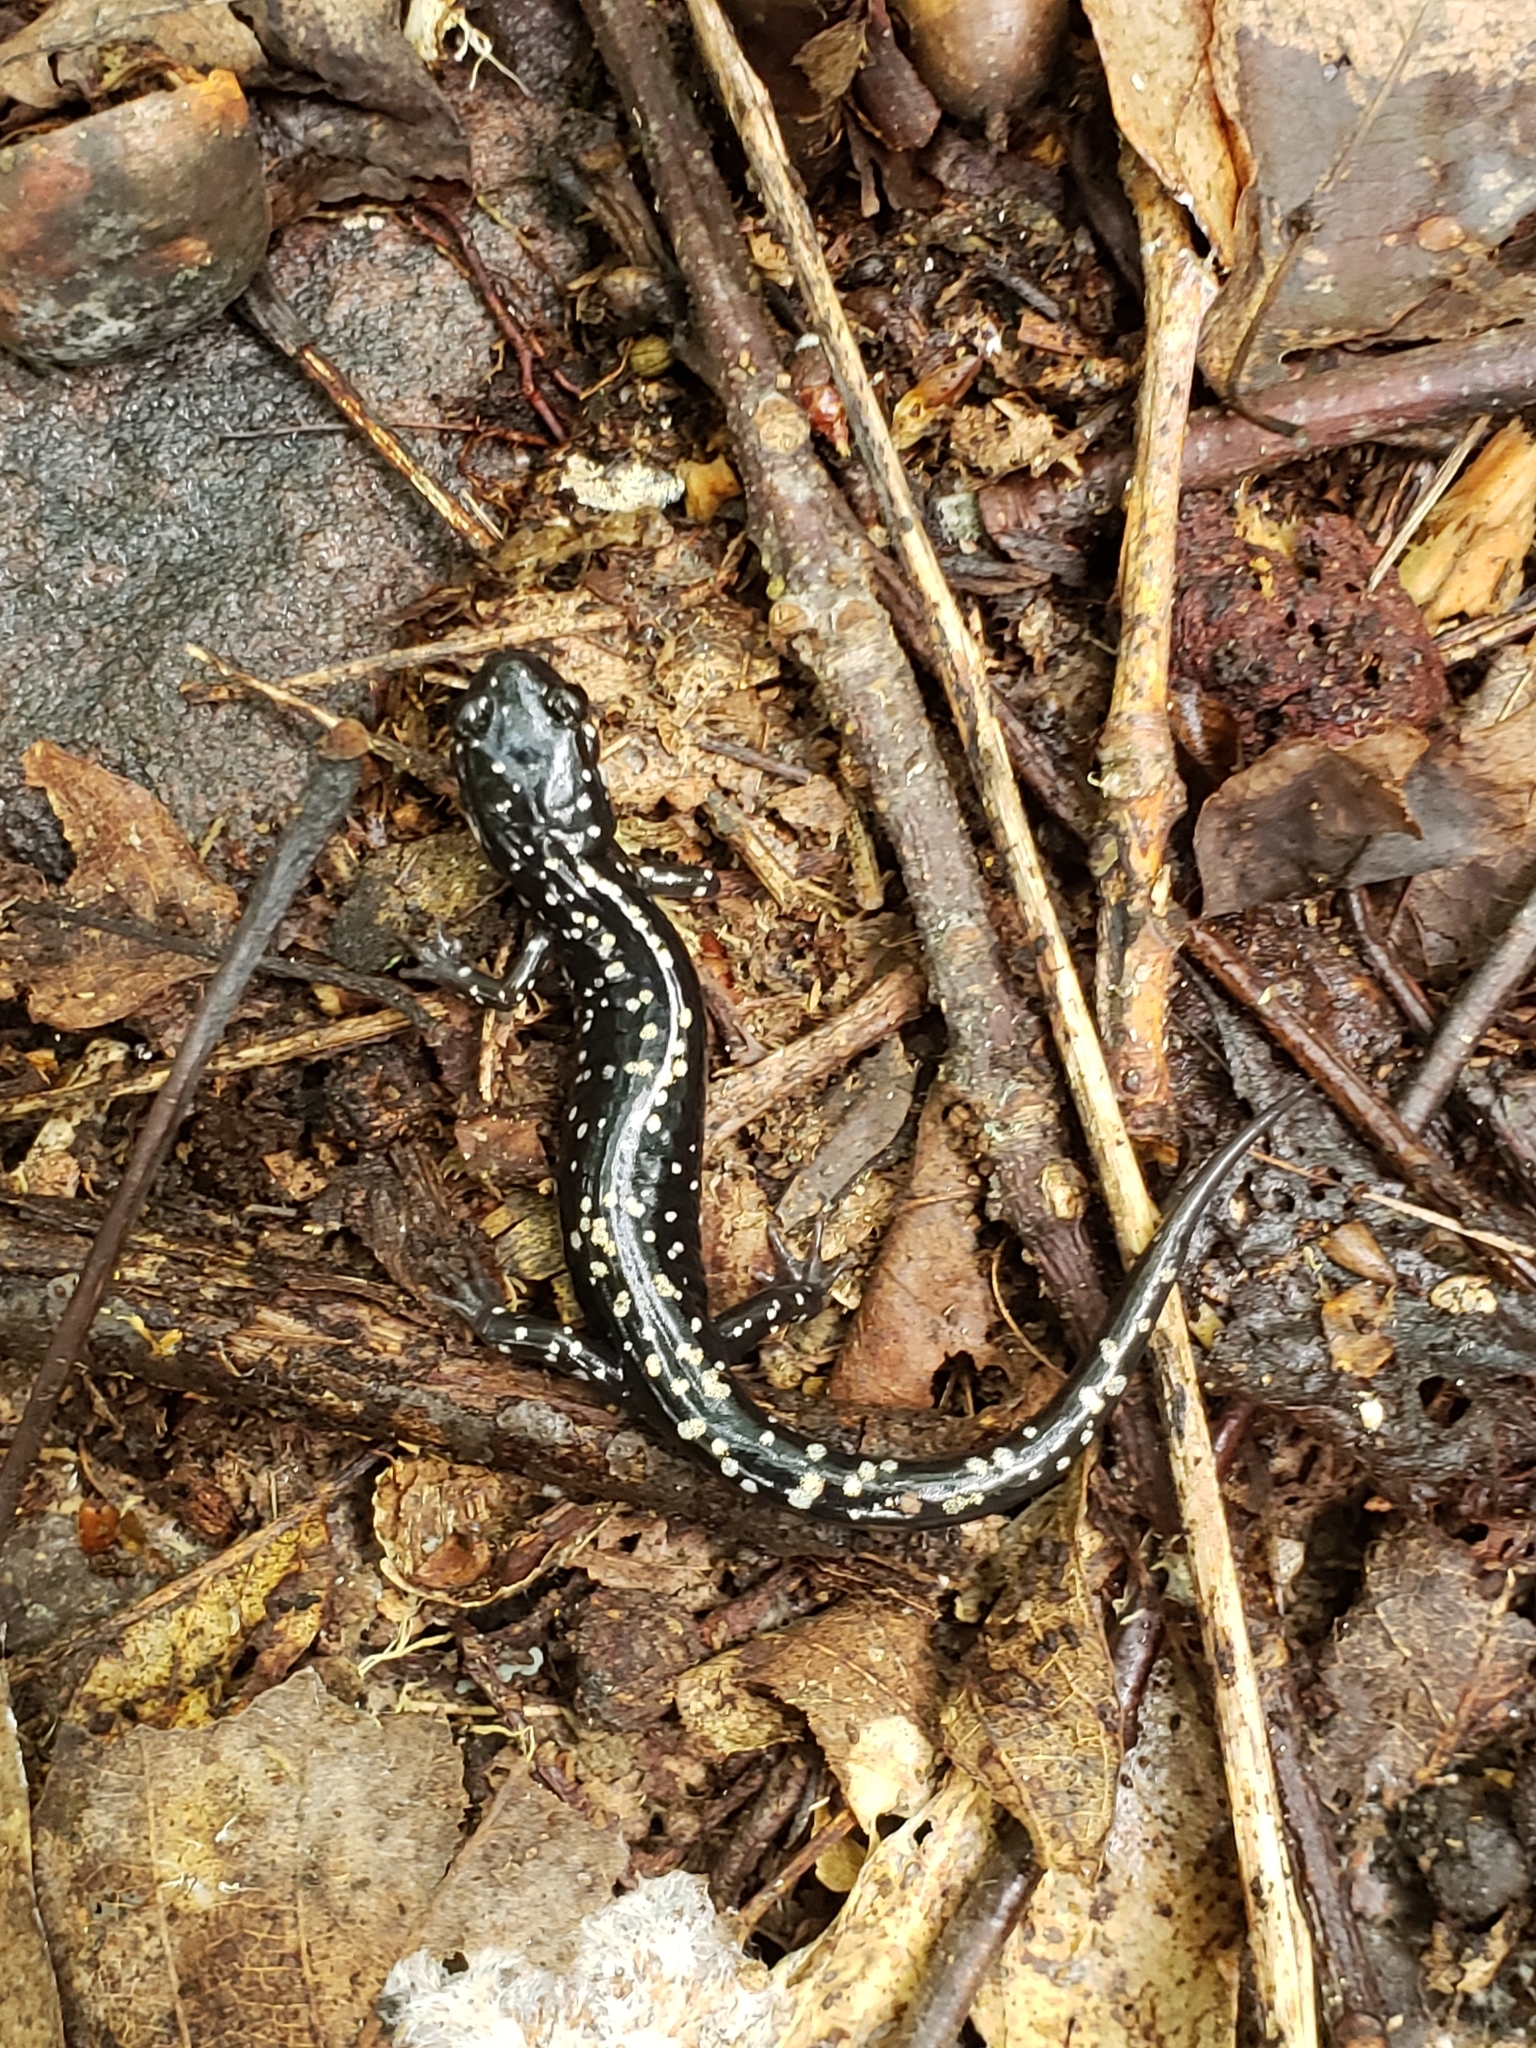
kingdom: Animalia
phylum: Chordata
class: Amphibia
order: Caudata
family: Plethodontidae
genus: Plethodon
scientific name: Plethodon glutinosus
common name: Northern slimy salamander
